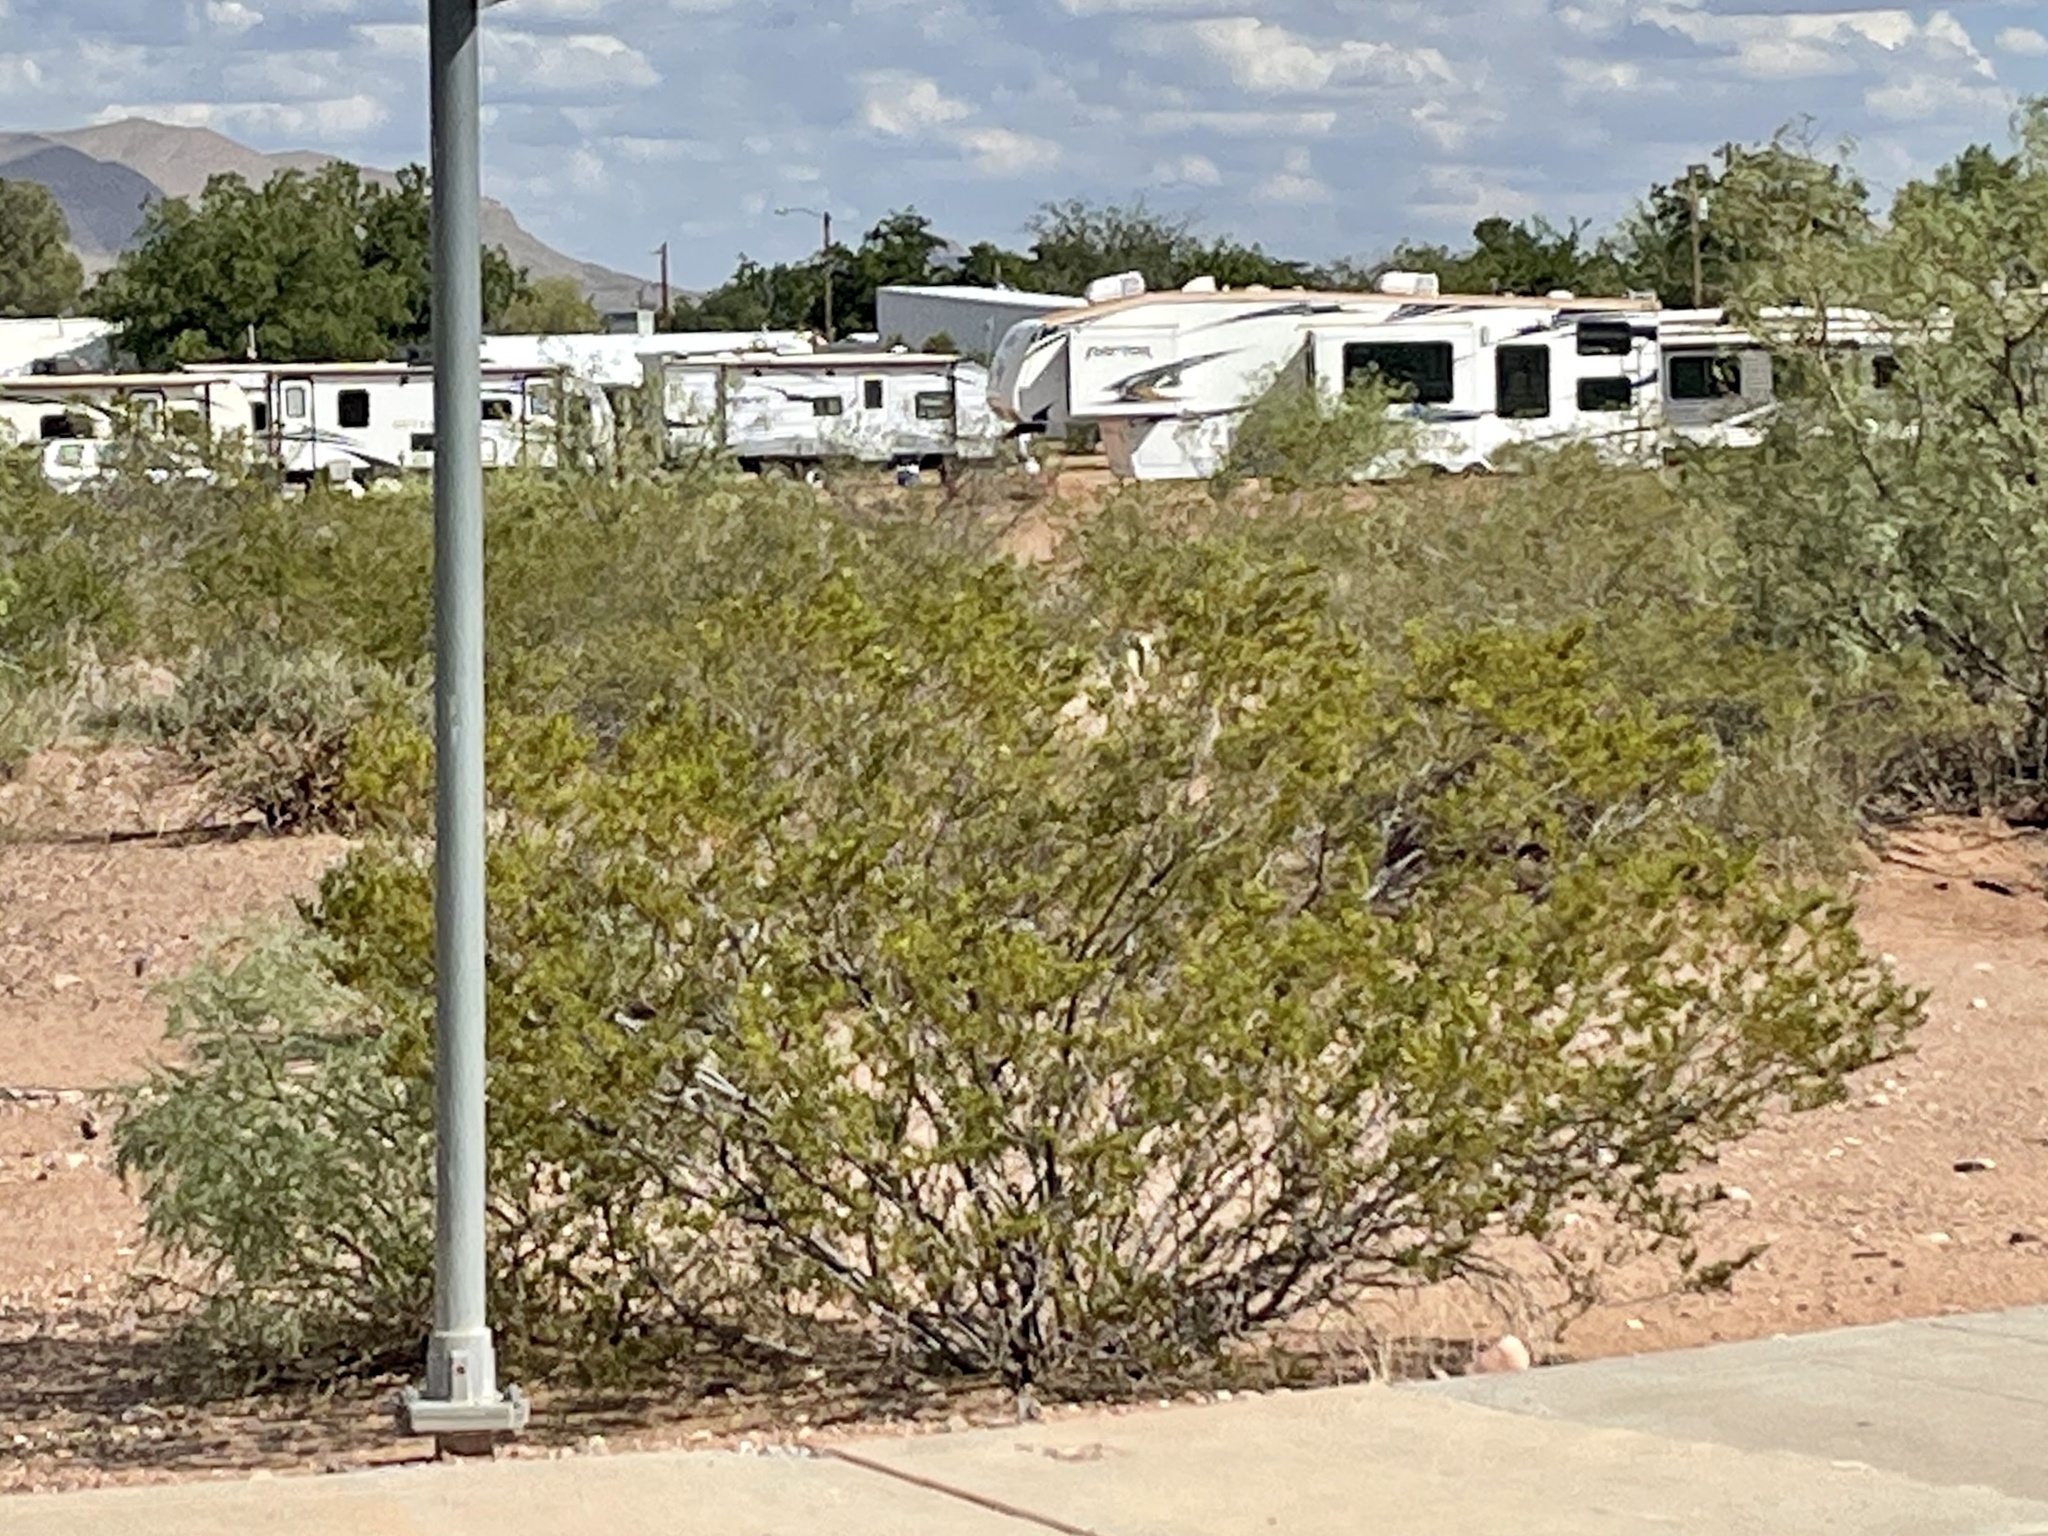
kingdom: Plantae
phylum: Tracheophyta
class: Magnoliopsida
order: Zygophyllales
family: Zygophyllaceae
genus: Larrea
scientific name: Larrea tridentata
